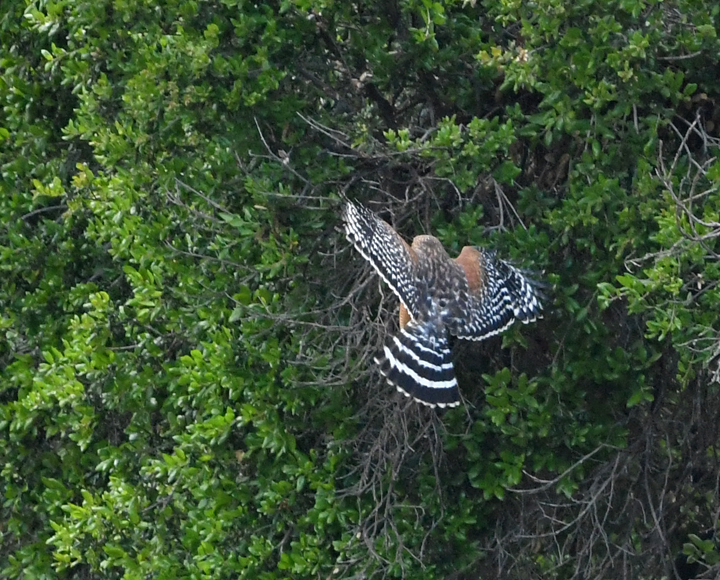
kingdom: Animalia
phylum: Chordata
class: Aves
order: Accipitriformes
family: Accipitridae
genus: Buteo
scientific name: Buteo lineatus
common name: Red-shouldered hawk
